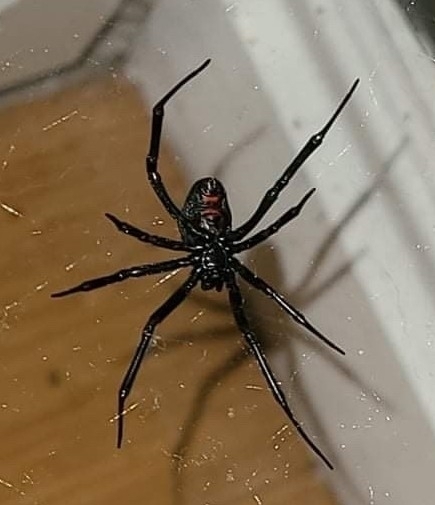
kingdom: Animalia
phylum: Arthropoda
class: Arachnida
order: Araneae
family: Theridiidae
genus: Latrodectus
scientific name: Latrodectus hesperus
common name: Western black widow
